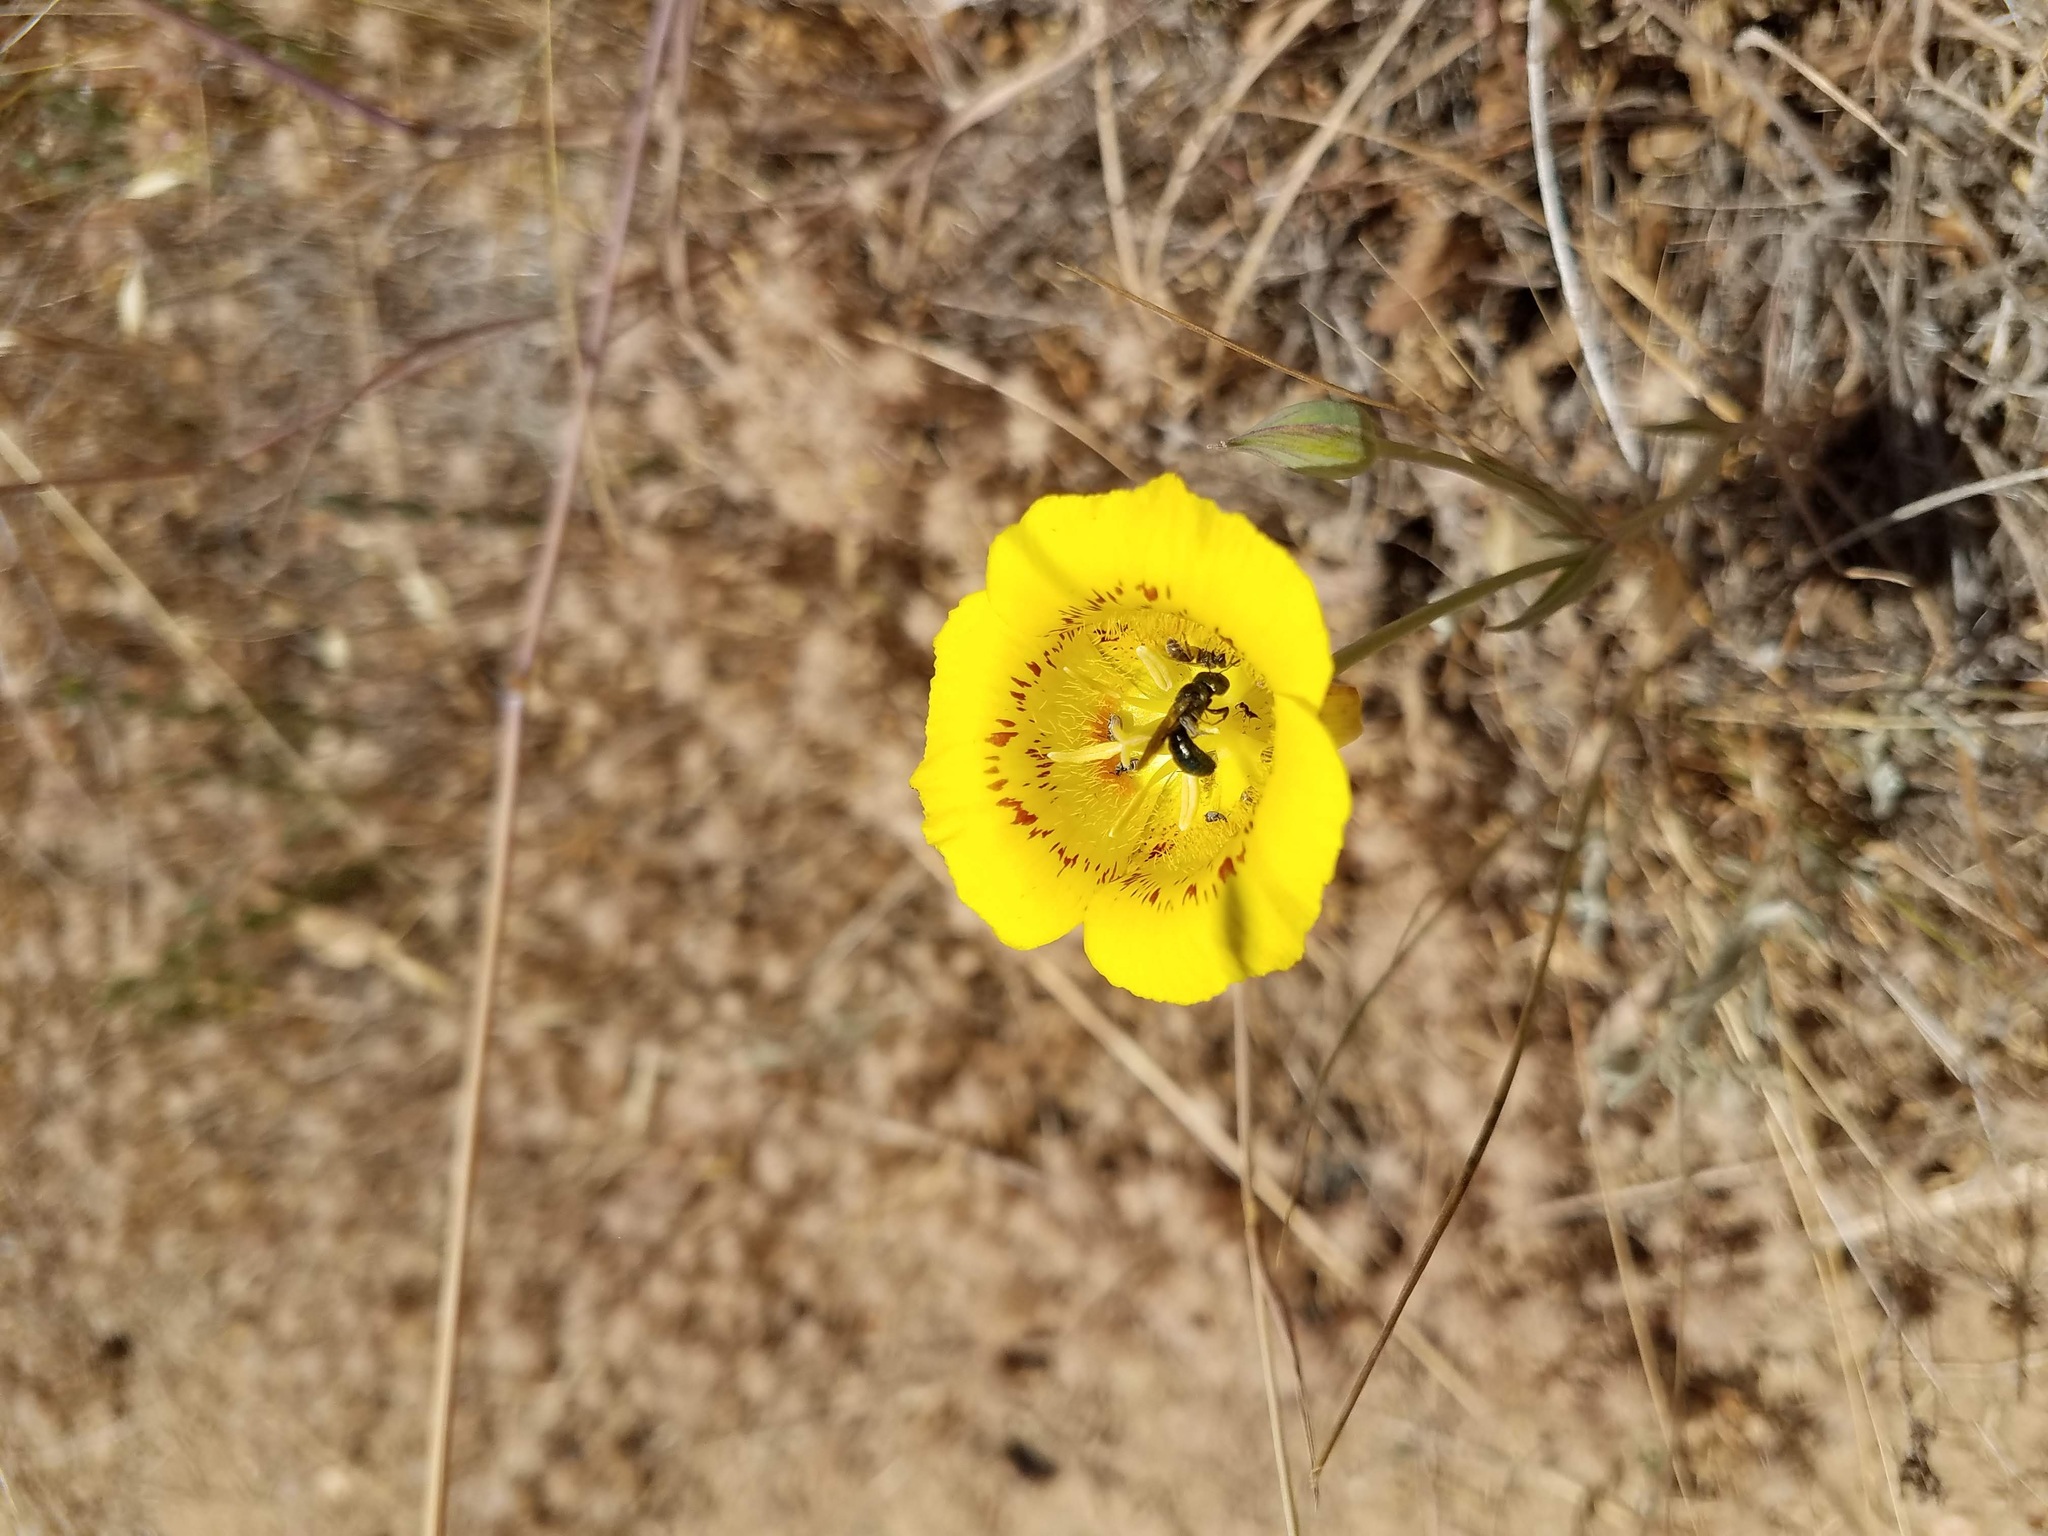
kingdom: Plantae
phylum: Tracheophyta
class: Liliopsida
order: Liliales
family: Liliaceae
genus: Calochortus
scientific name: Calochortus luteus
